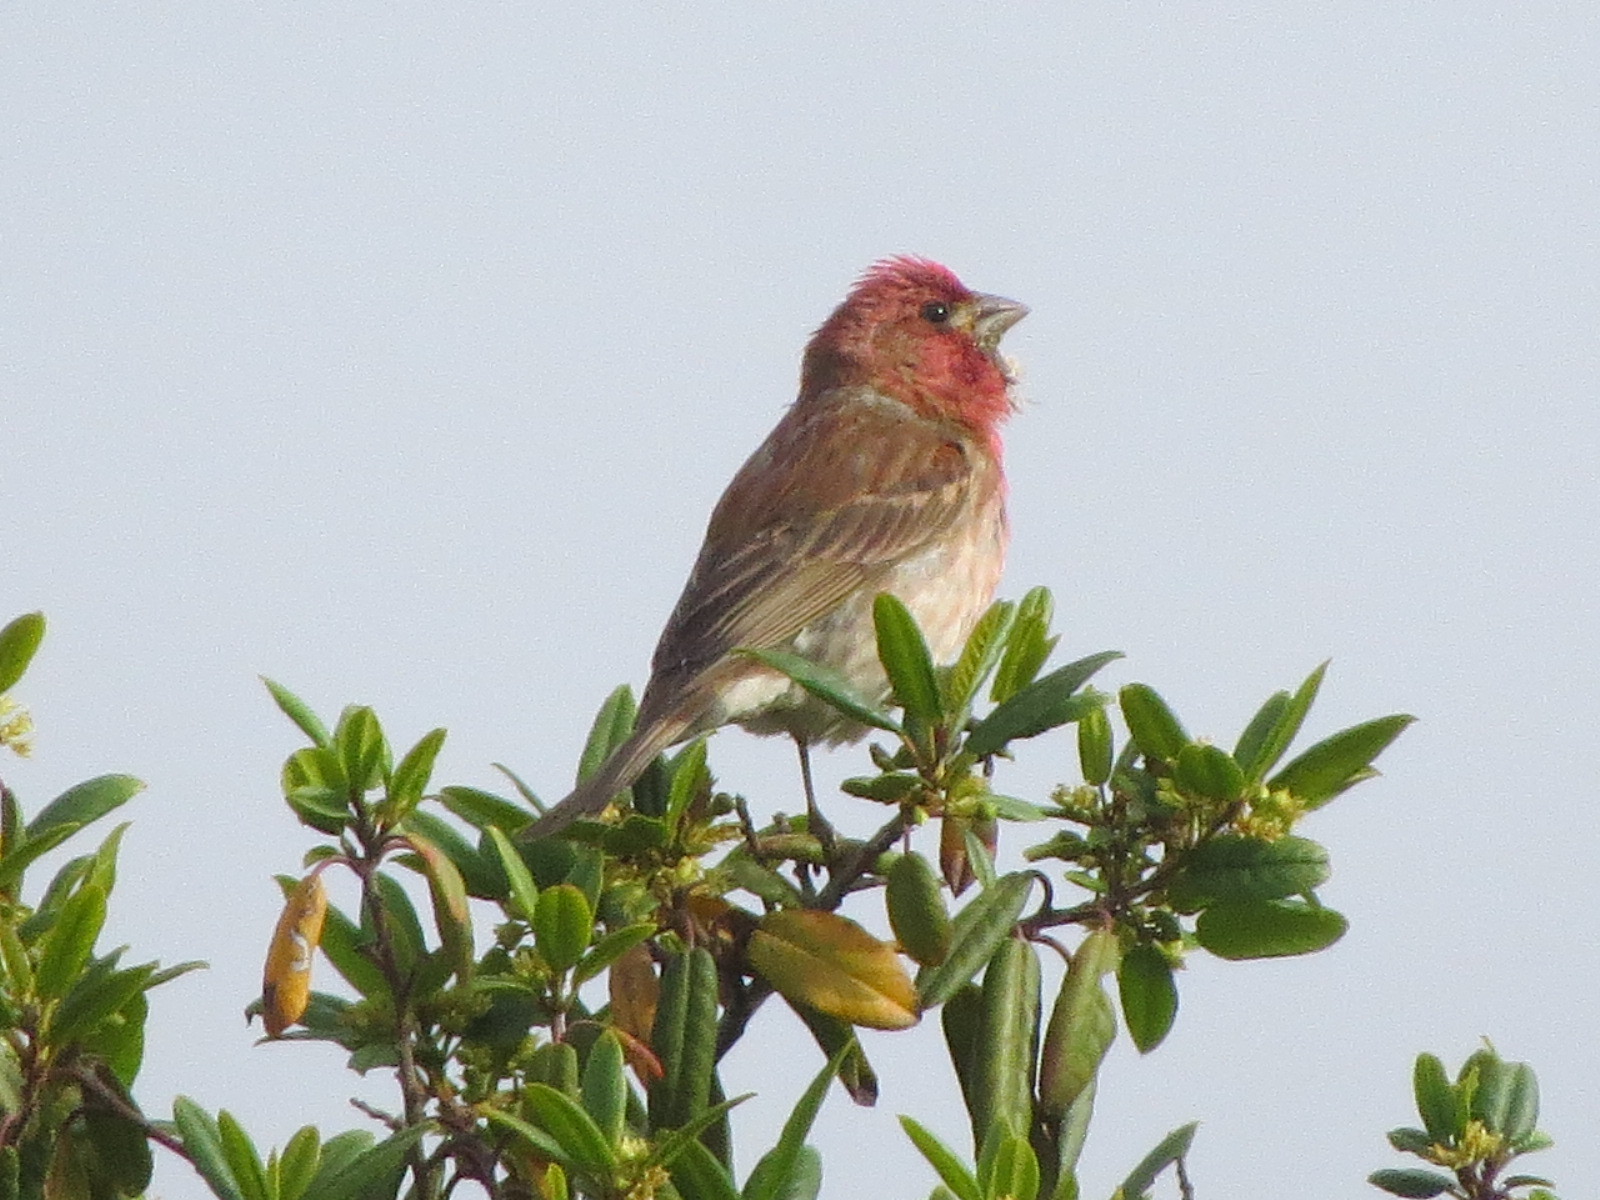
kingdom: Animalia
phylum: Chordata
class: Aves
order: Passeriformes
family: Fringillidae
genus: Haemorhous
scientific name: Haemorhous purpureus
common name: Purple finch
